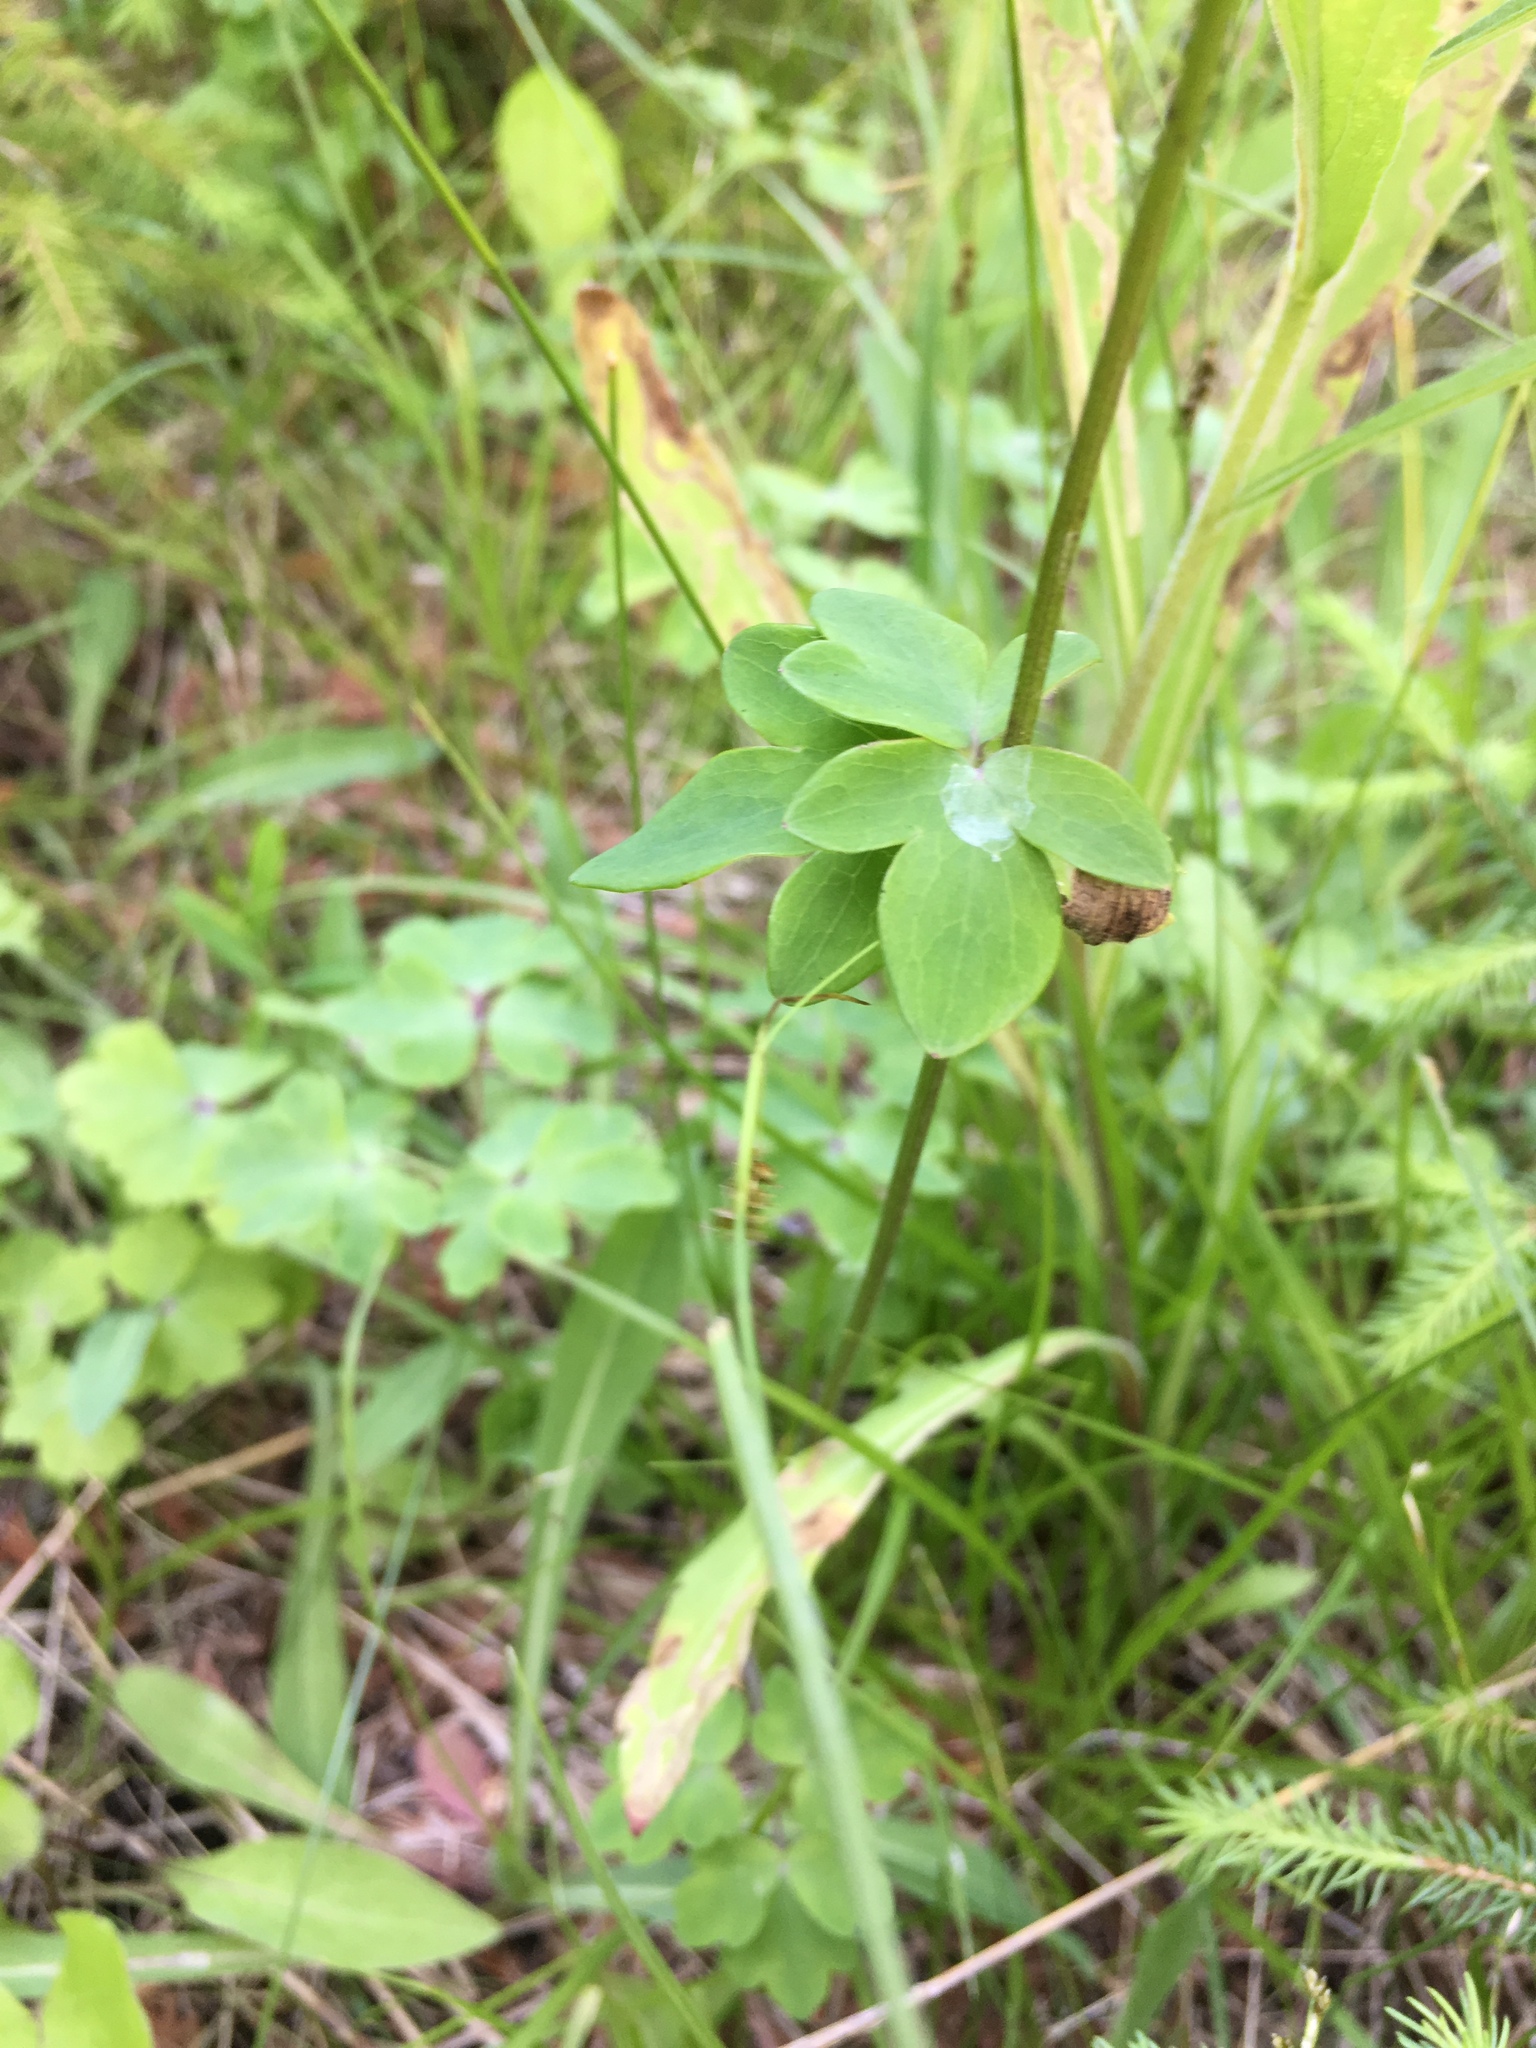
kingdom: Plantae
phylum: Tracheophyta
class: Magnoliopsida
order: Ranunculales
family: Ranunculaceae
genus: Aquilegia
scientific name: Aquilegia vulgaris
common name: Columbine
